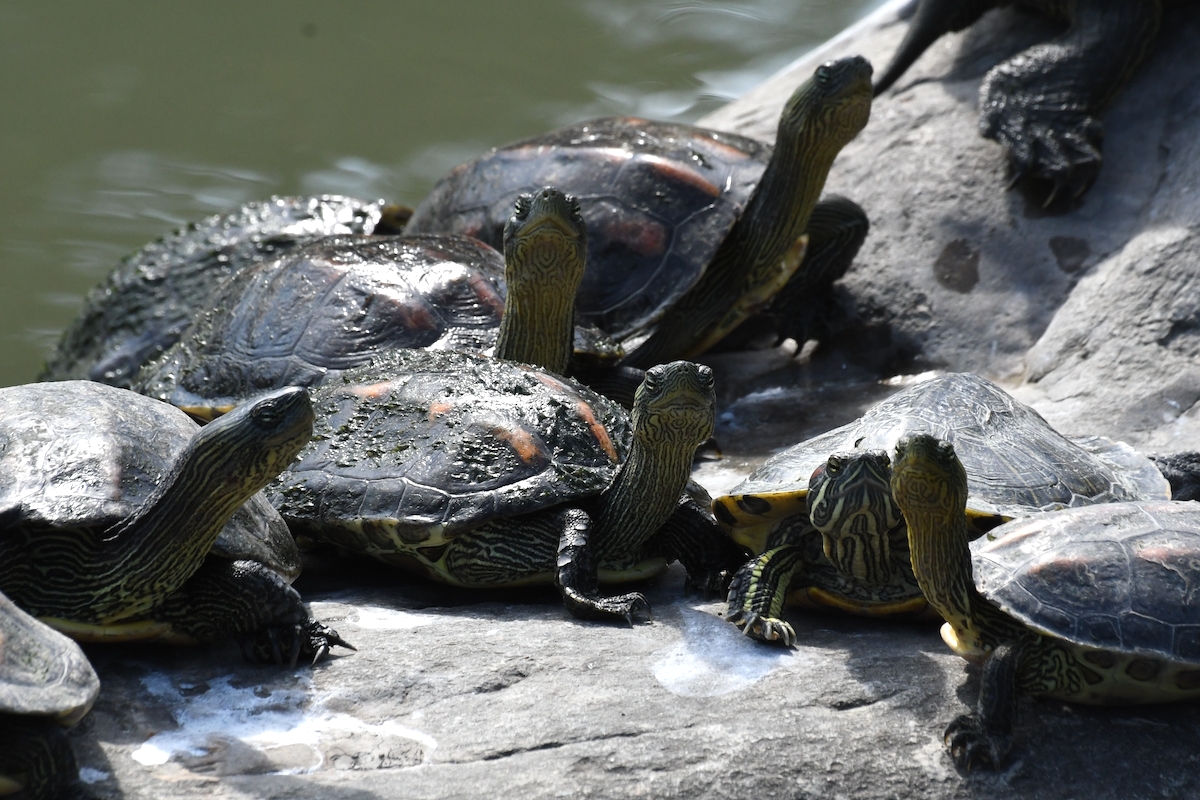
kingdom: Animalia
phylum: Chordata
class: Testudines
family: Geoemydidae
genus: Mauremys
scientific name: Mauremys sinensis
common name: Chinese stripe-necked turtle
